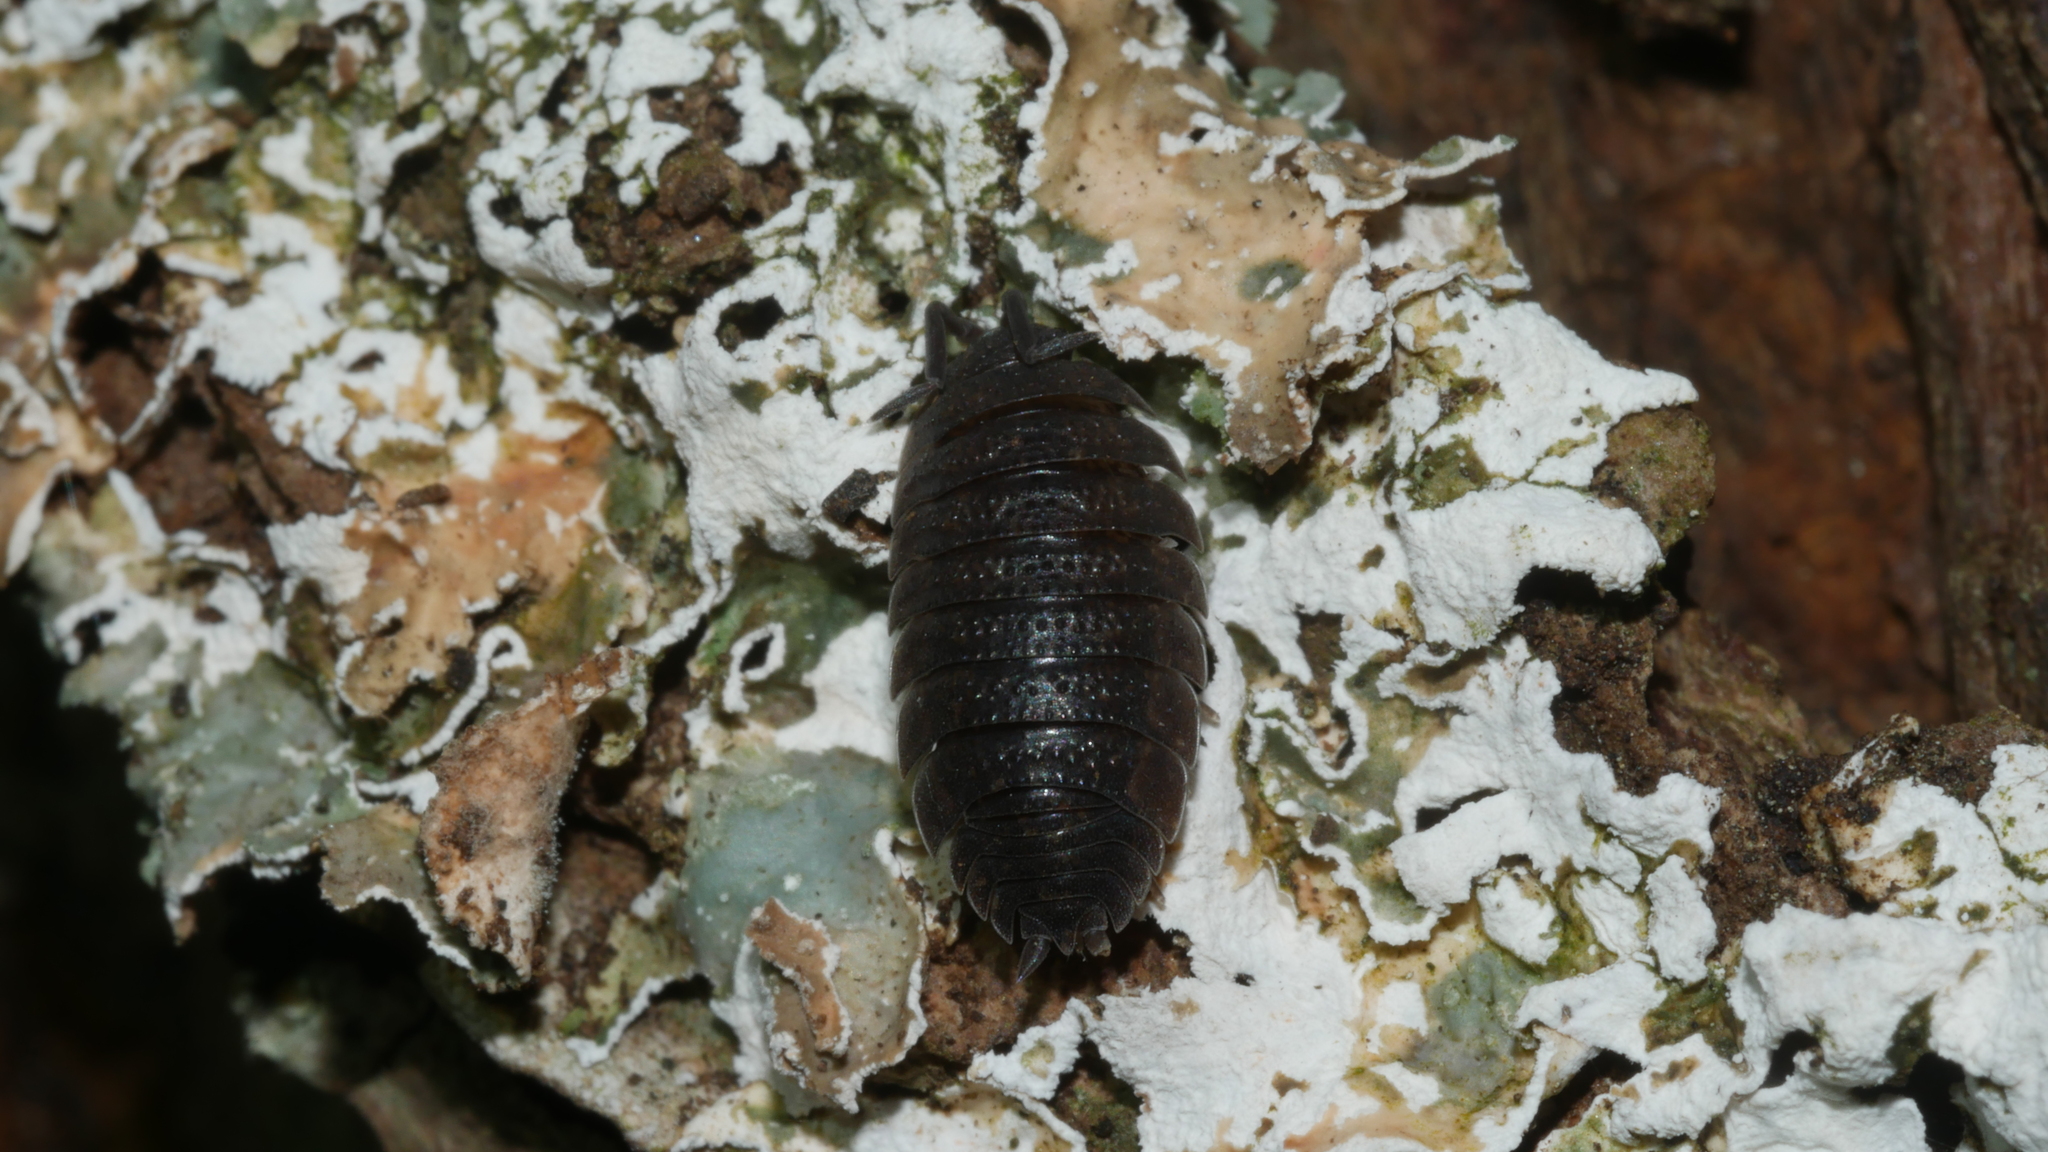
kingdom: Animalia
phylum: Arthropoda
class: Malacostraca
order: Isopoda
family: Porcellionidae
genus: Porcellio
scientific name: Porcellio scaber
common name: Common rough woodlouse
